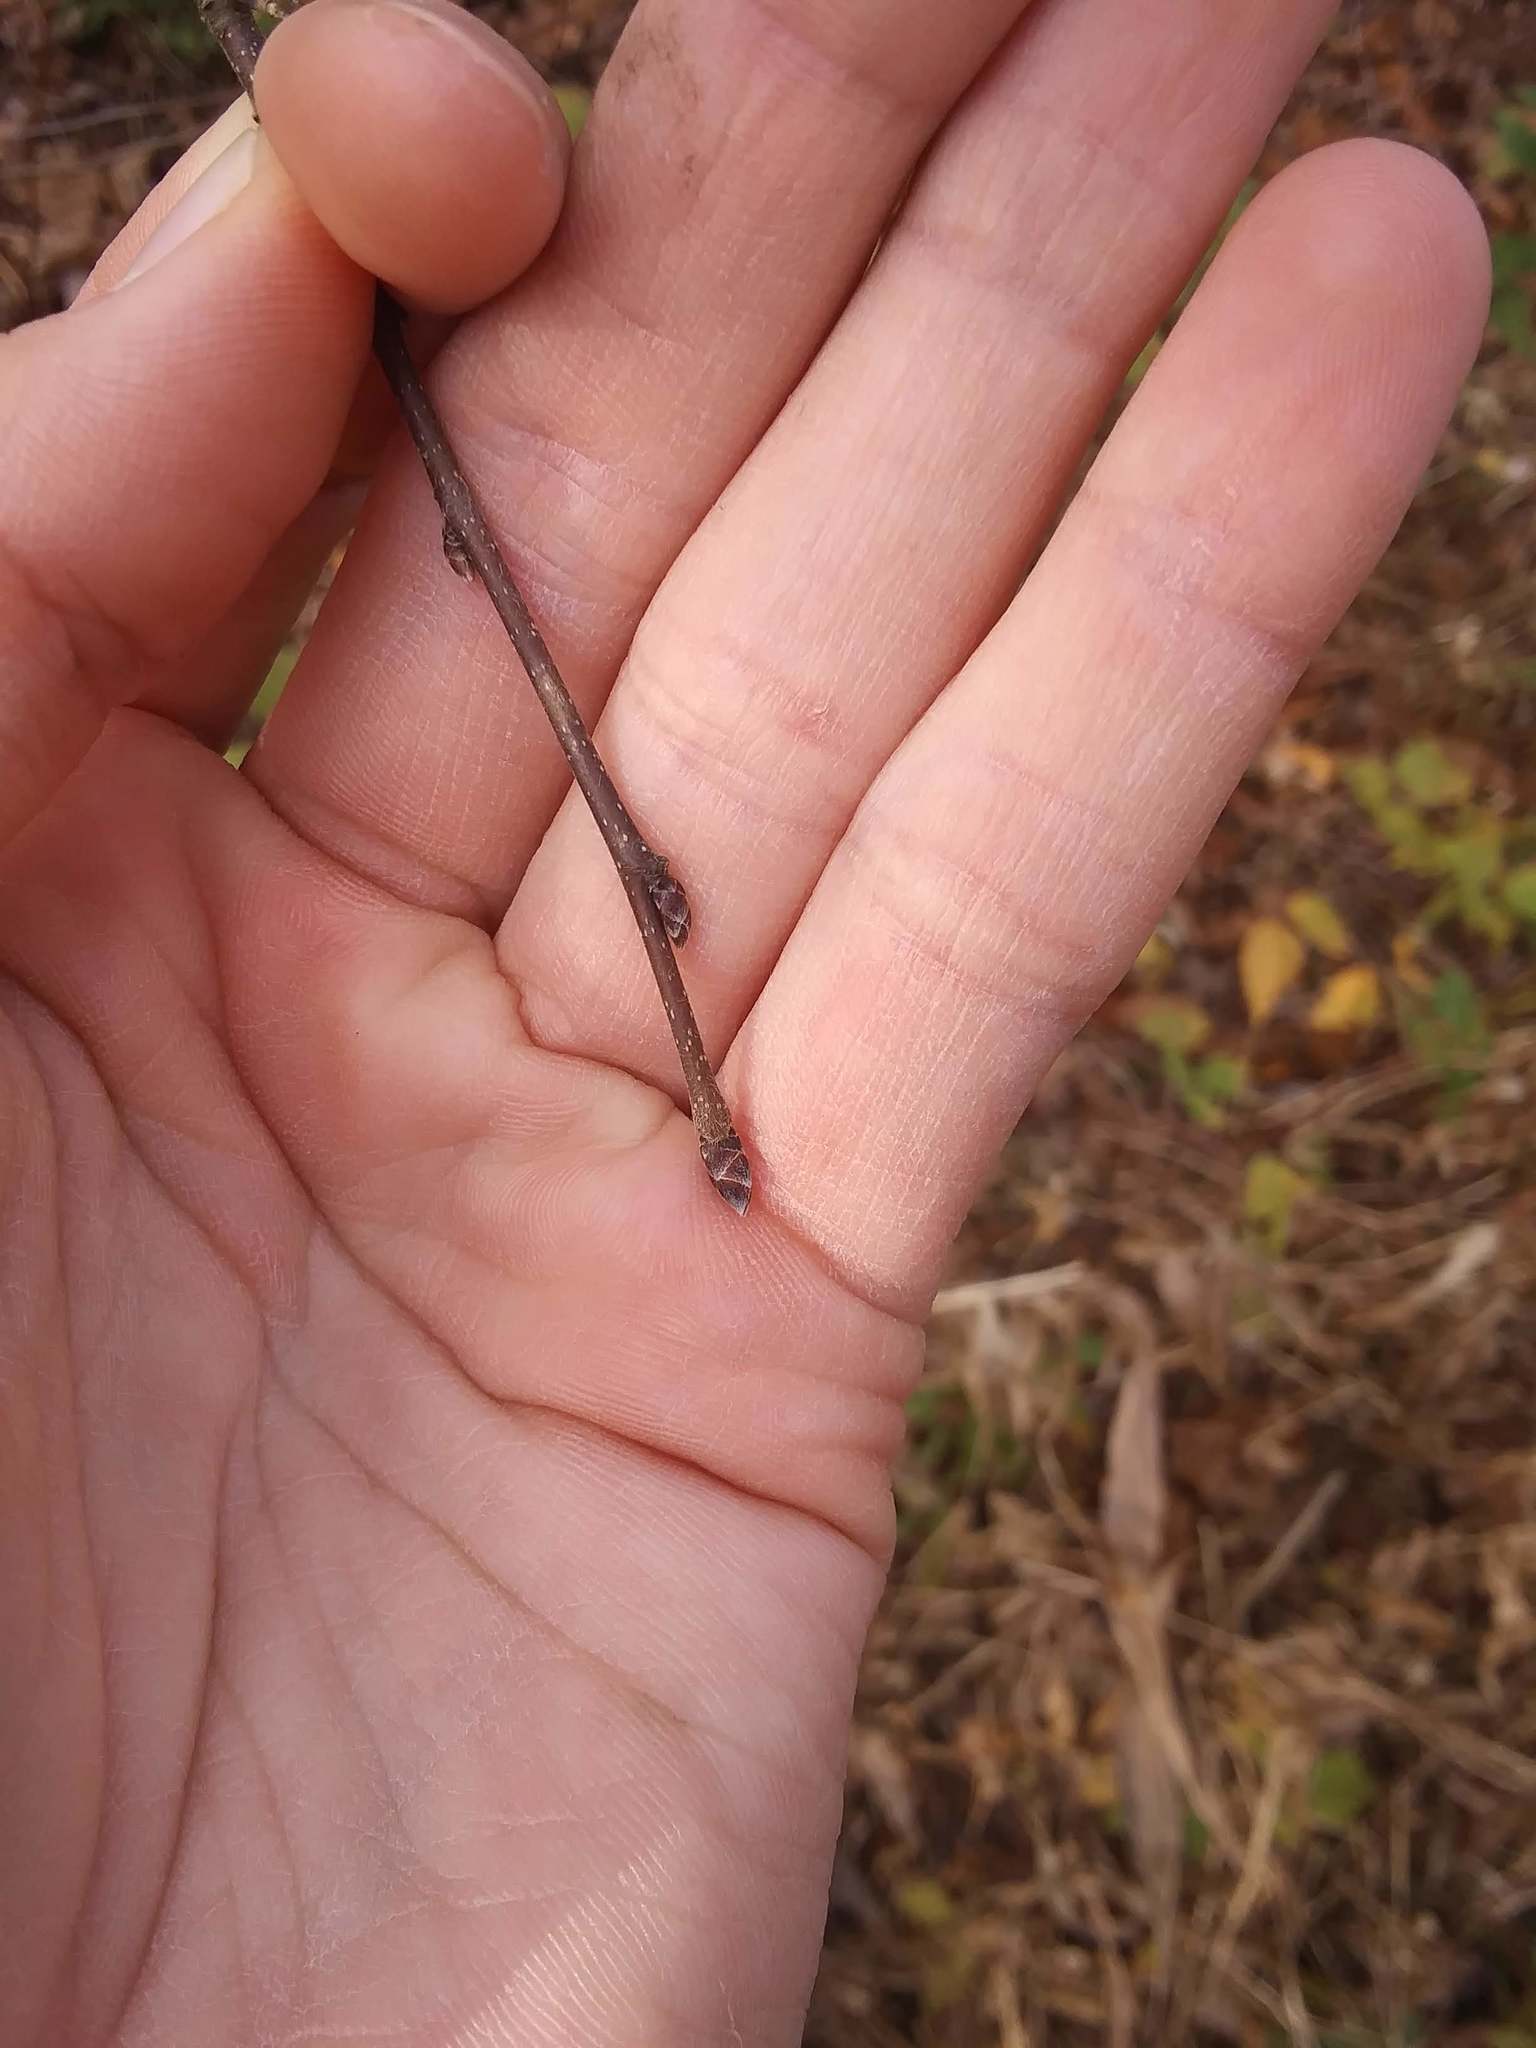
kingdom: Plantae
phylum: Tracheophyta
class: Magnoliopsida
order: Fagales
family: Betulaceae
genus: Carpinus
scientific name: Carpinus caroliniana
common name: American hornbeam
